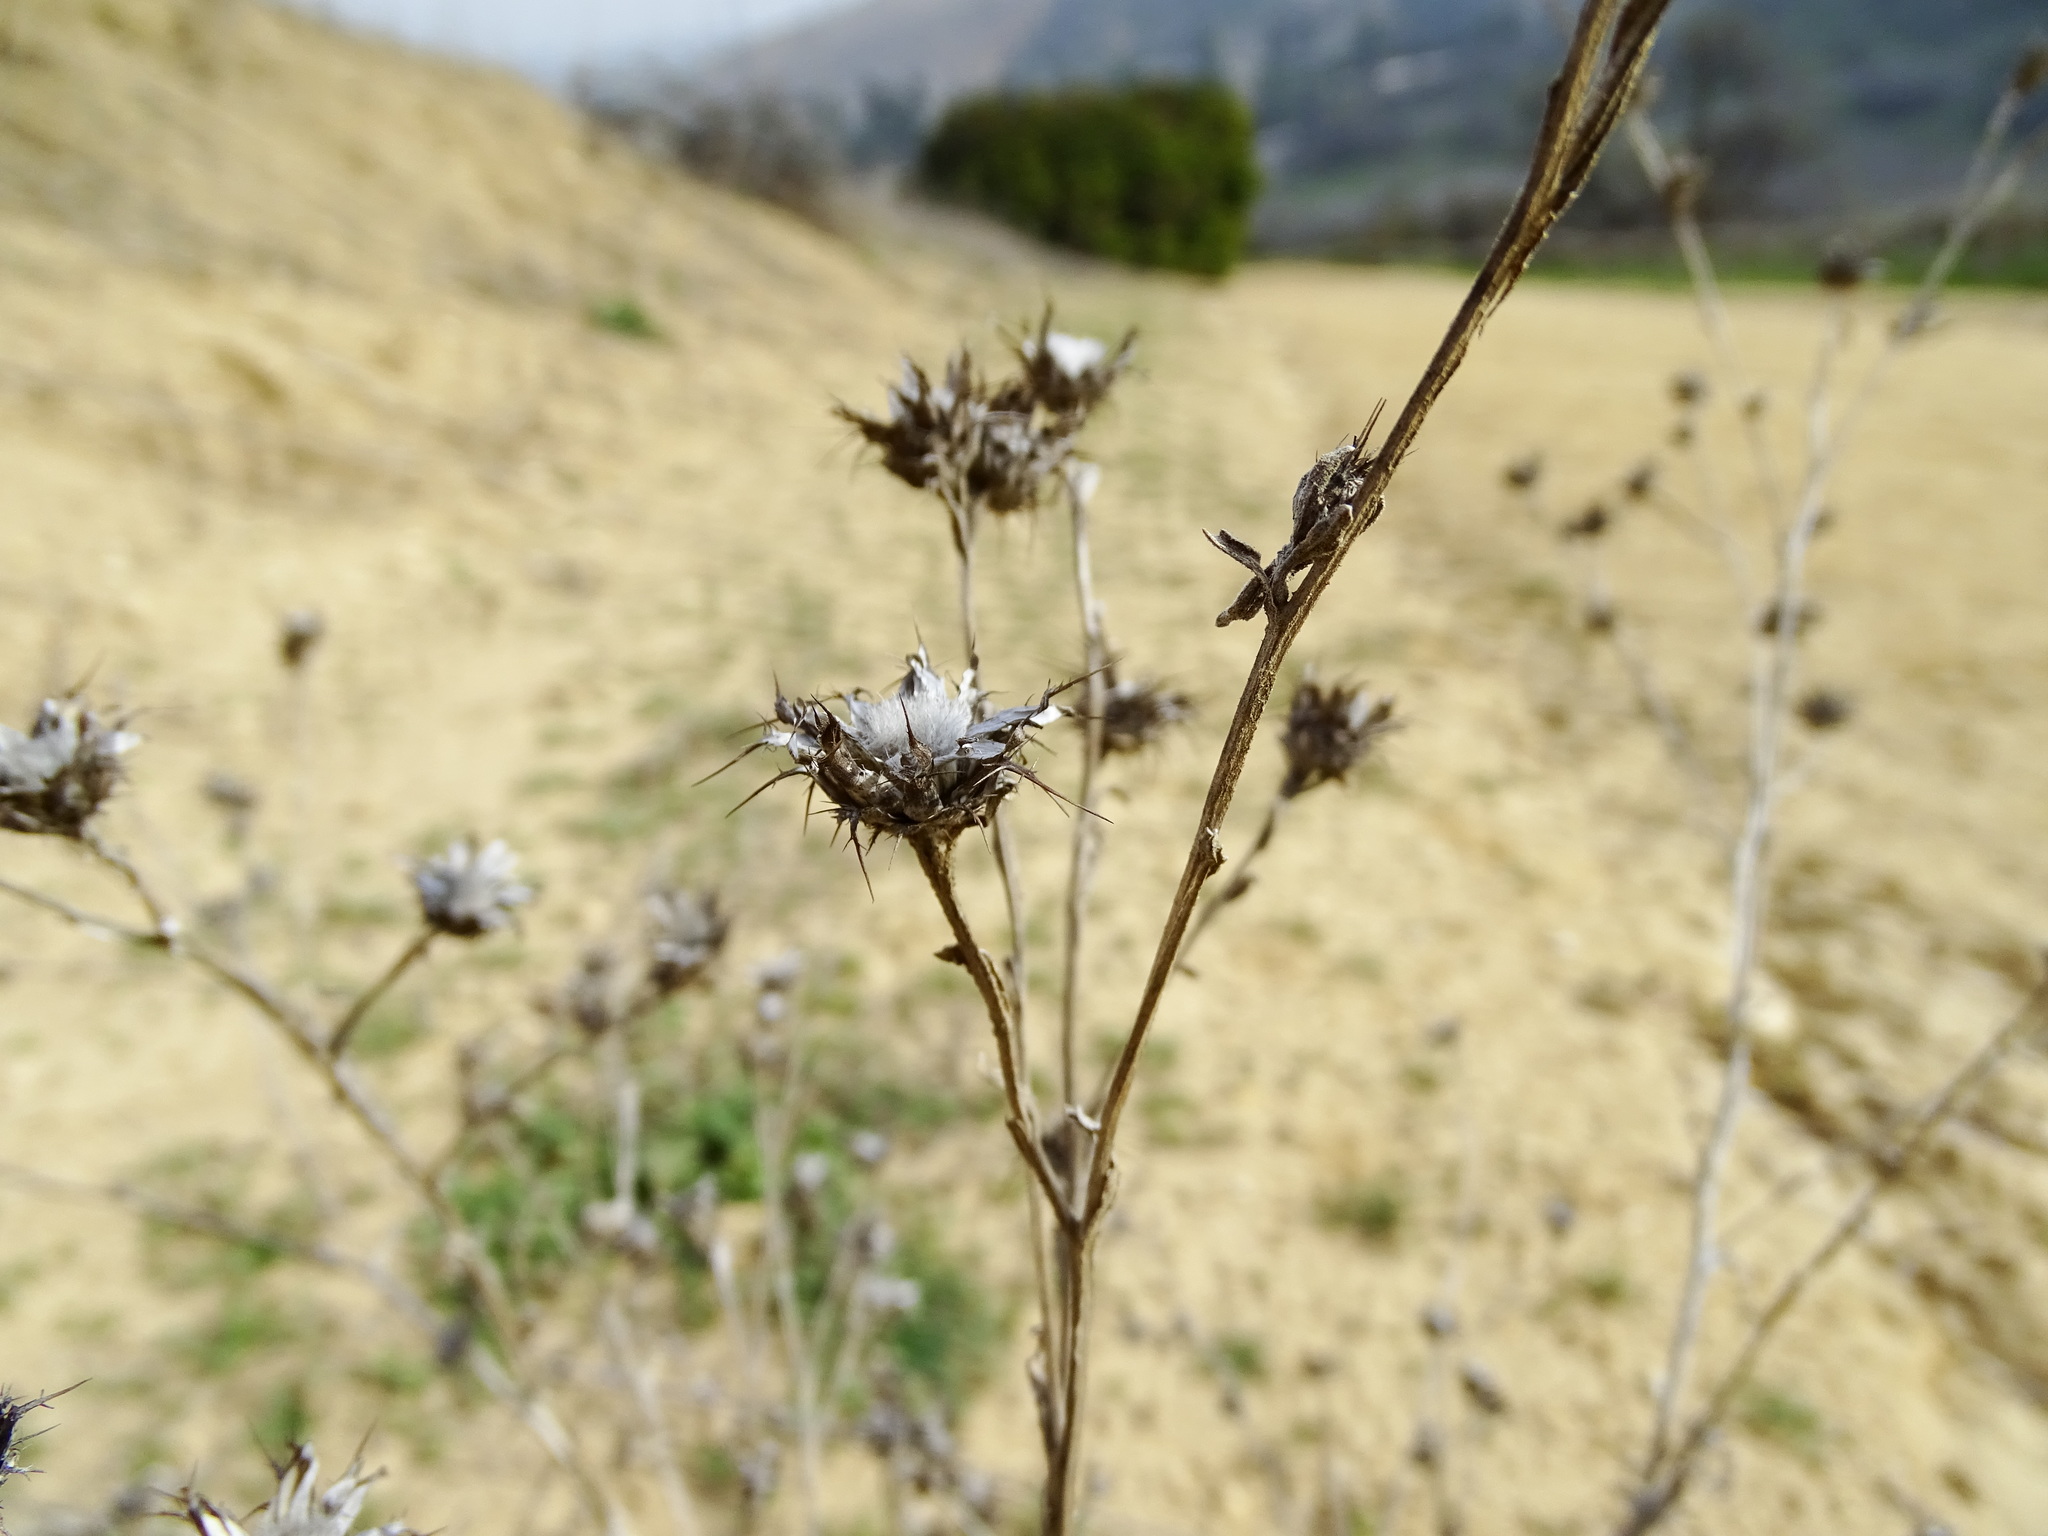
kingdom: Plantae
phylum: Tracheophyta
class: Magnoliopsida
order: Asterales
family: Asteraceae
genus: Centaurea
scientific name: Centaurea melitensis
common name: Maltese star-thistle
